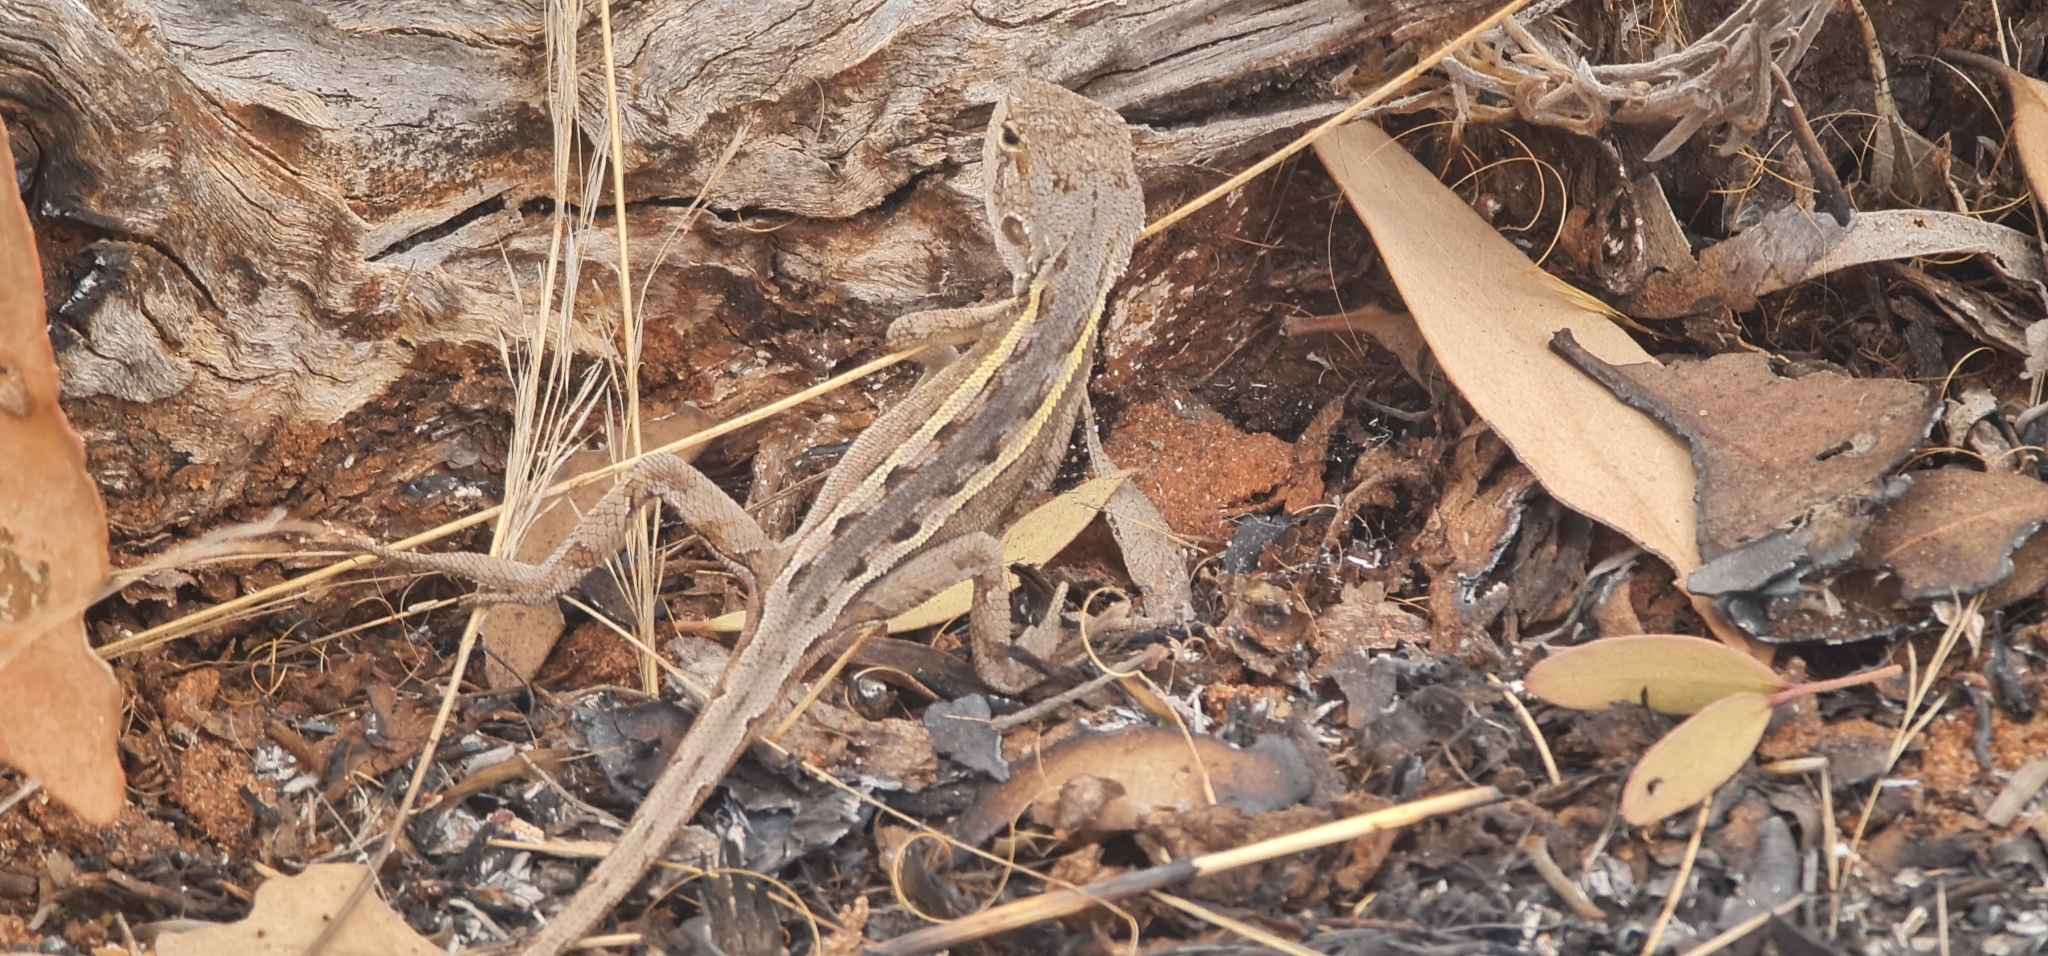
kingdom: Animalia
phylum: Chordata
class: Squamata
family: Agamidae
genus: Diporiphora
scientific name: Diporiphora nobbi
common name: Nobbi
